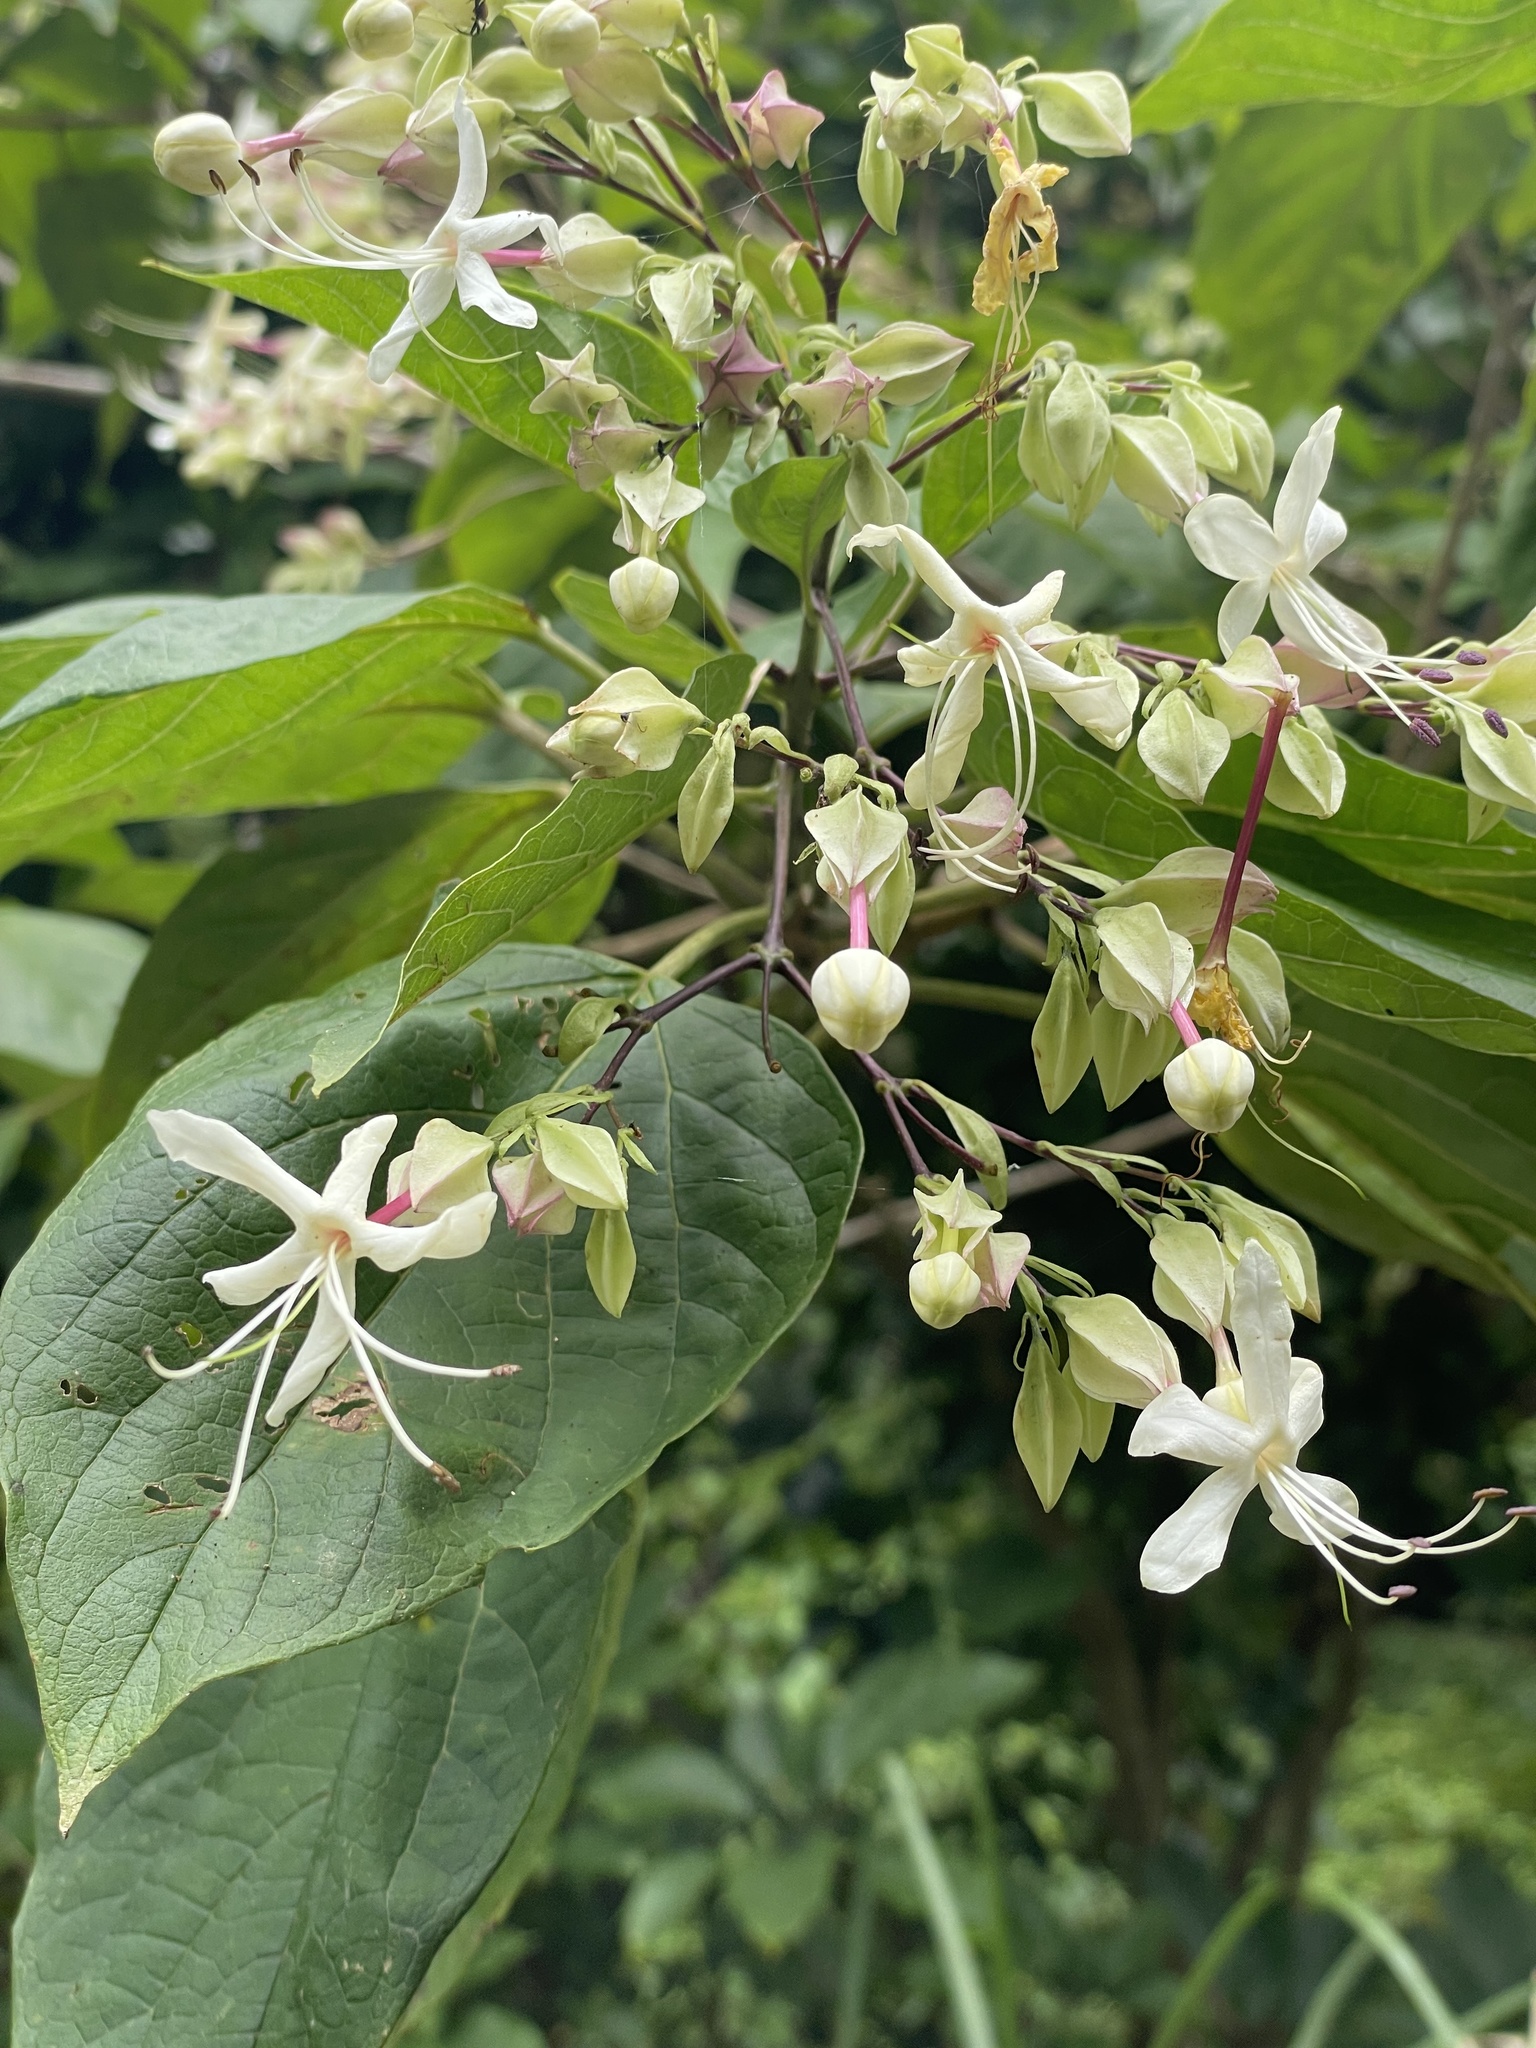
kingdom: Plantae
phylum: Tracheophyta
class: Magnoliopsida
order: Lamiales
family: Lamiaceae
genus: Clerodendrum
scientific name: Clerodendrum trichotomum
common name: Harlequin glorybower
